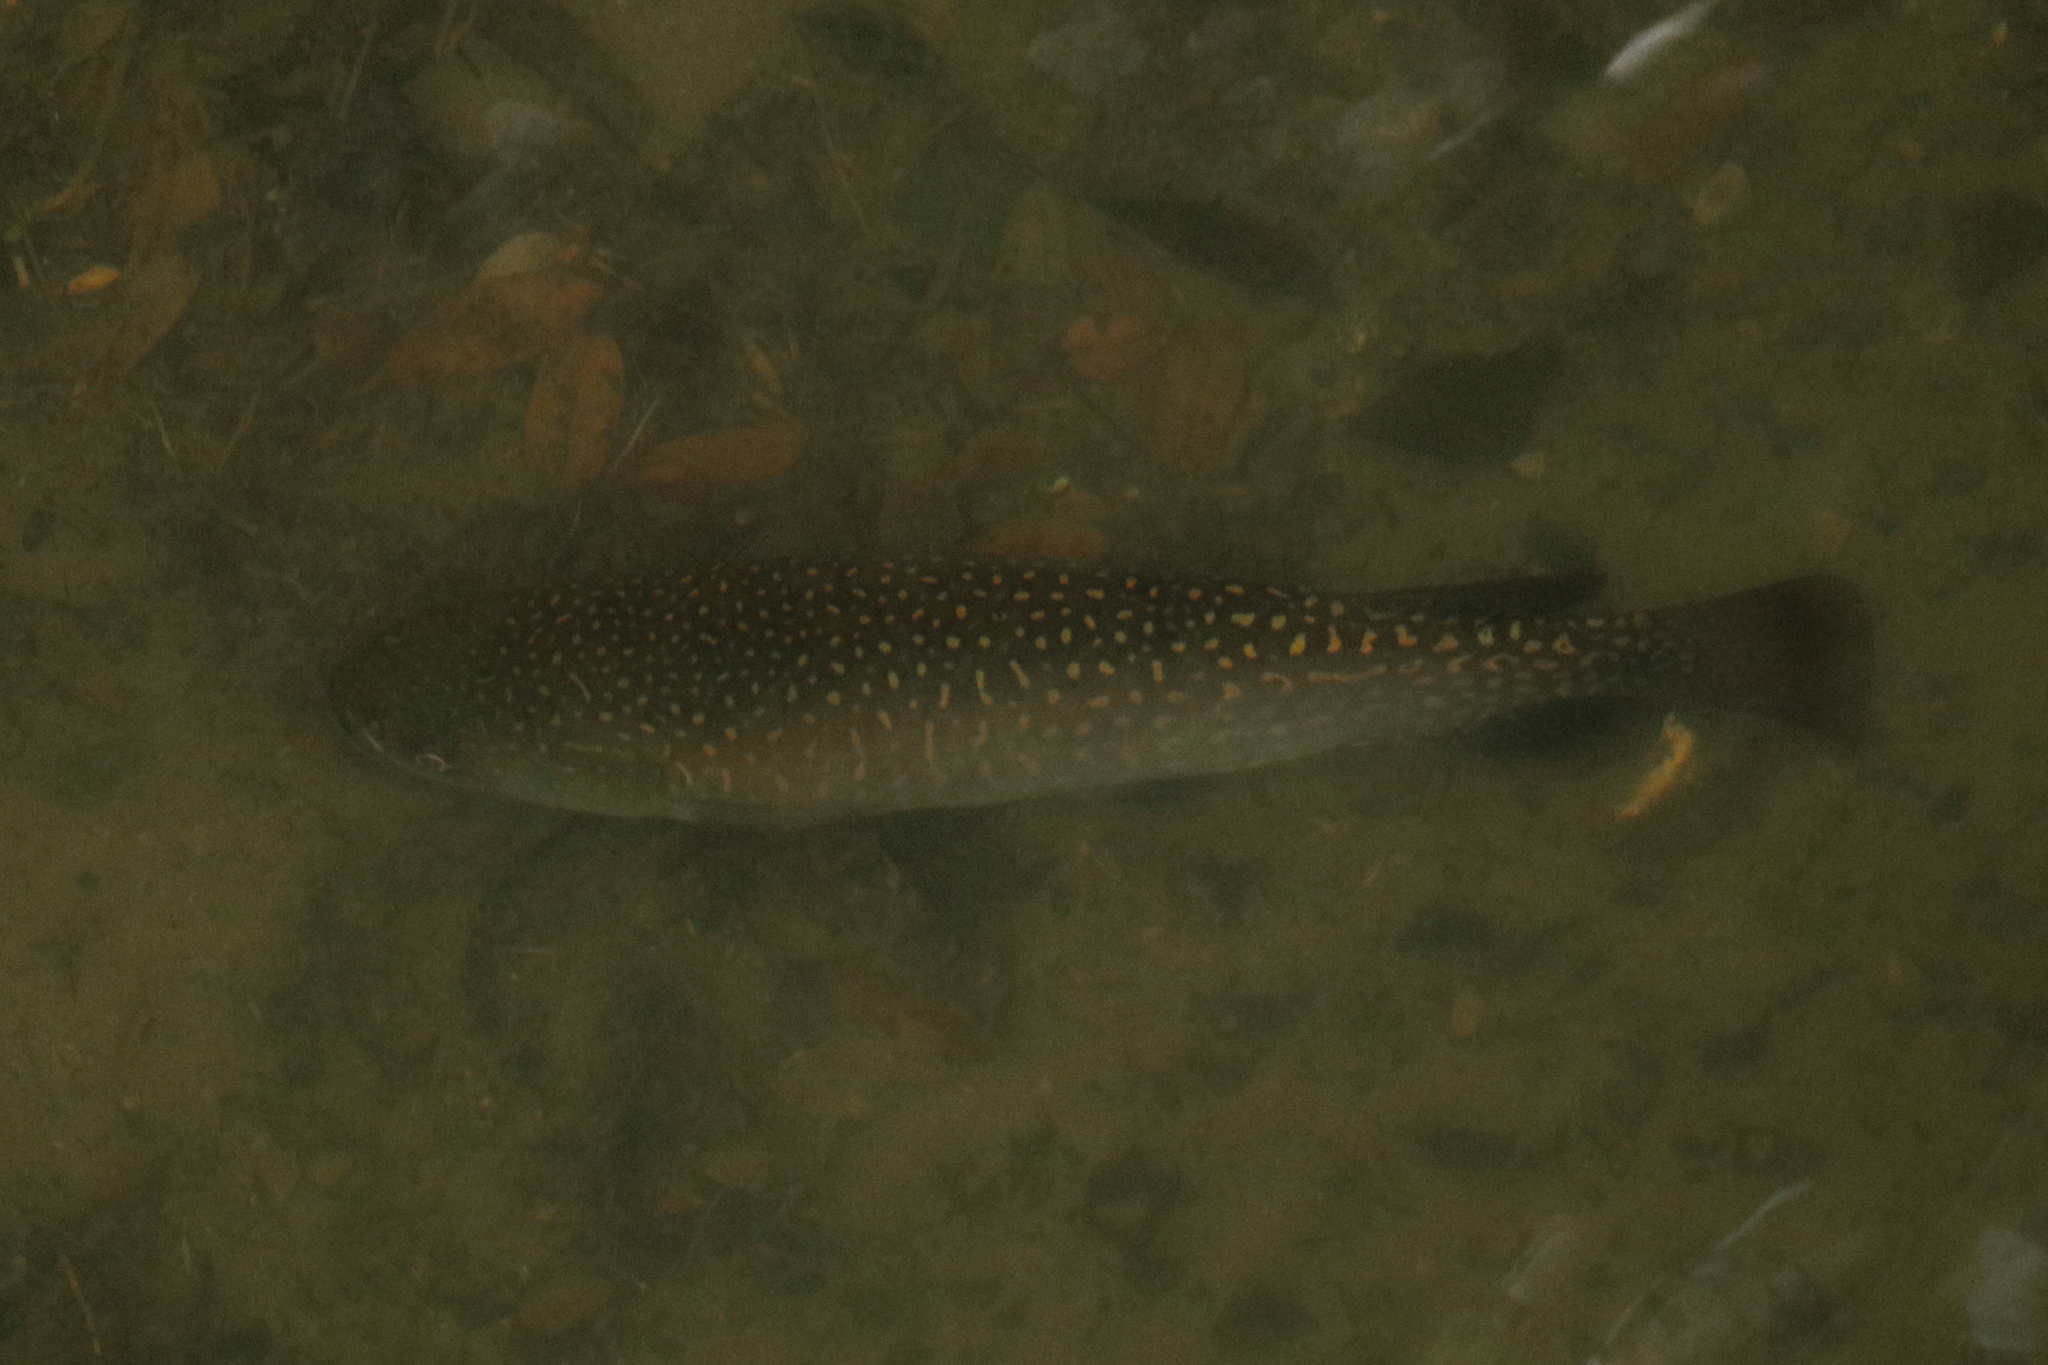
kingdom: Animalia
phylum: Chordata
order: Osmeriformes
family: Galaxiidae
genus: Galaxias
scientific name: Galaxias argenteus
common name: Giant kokopu
